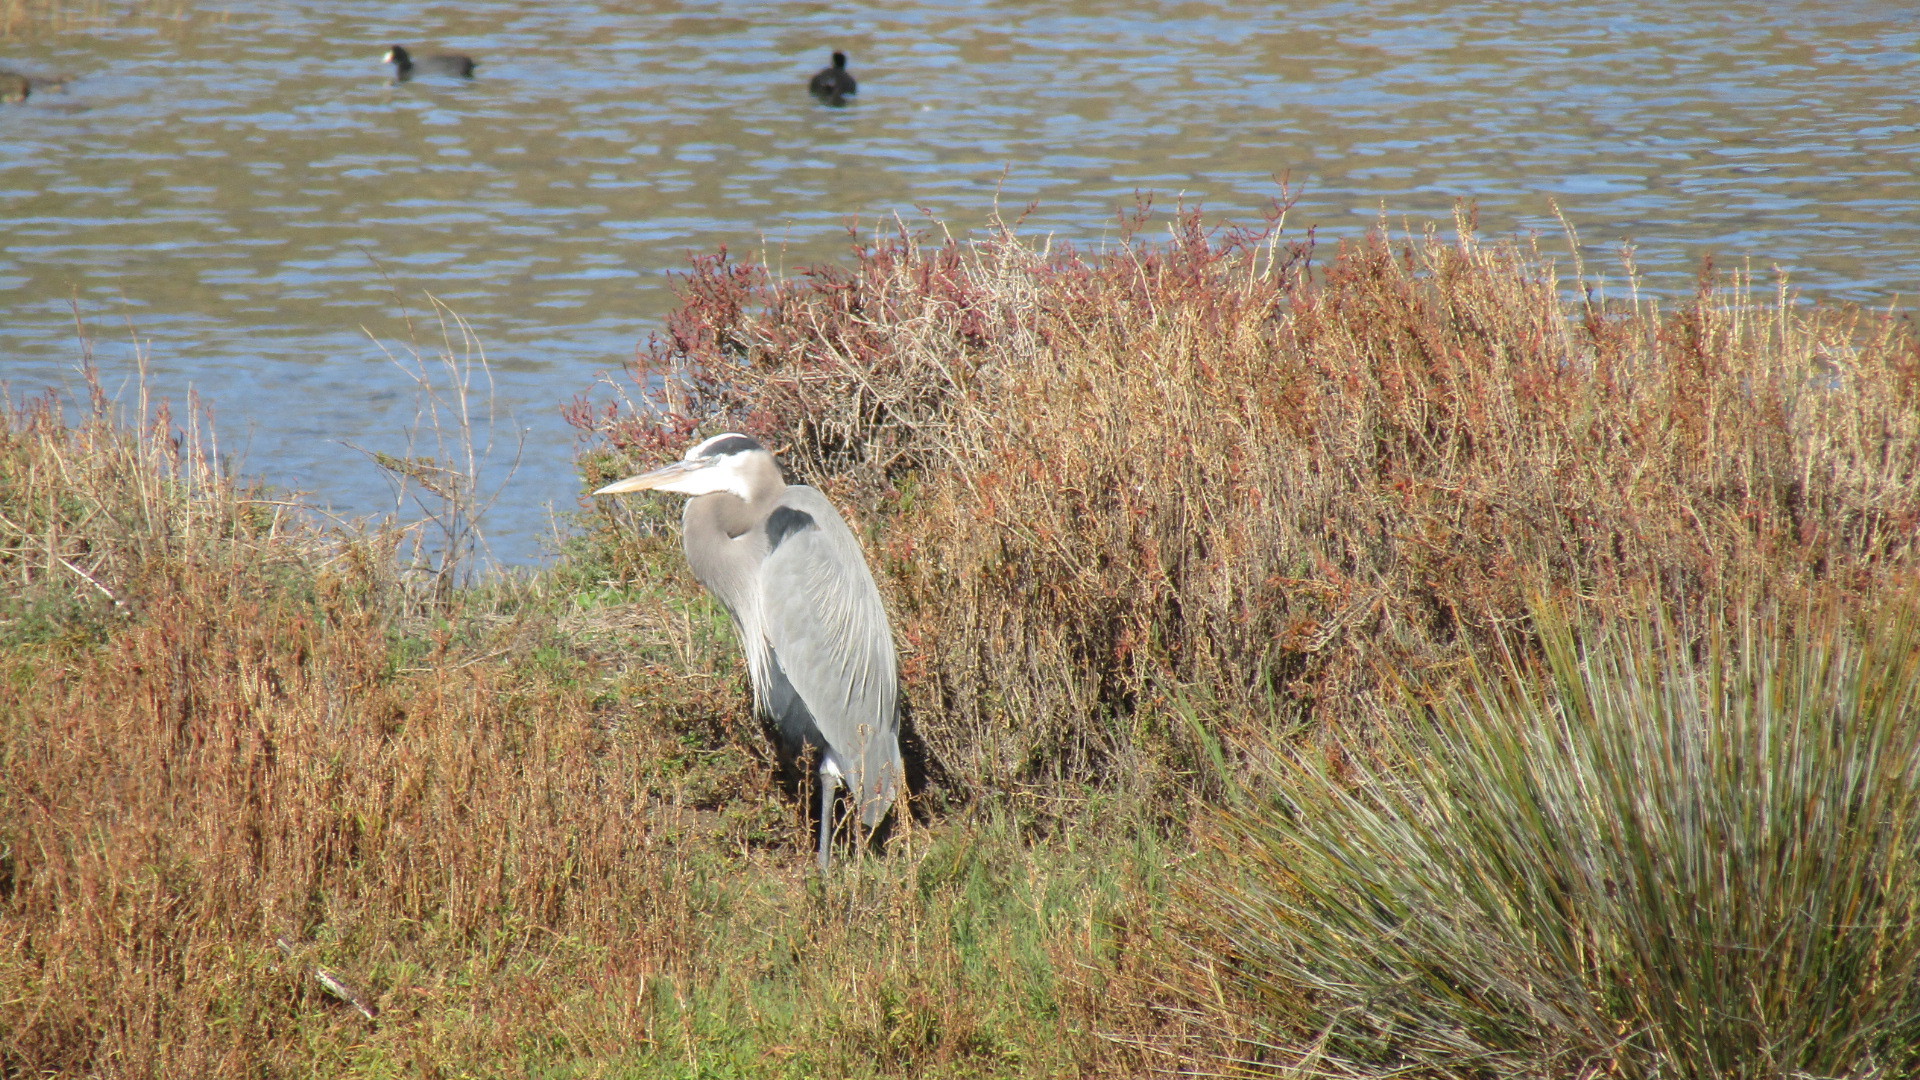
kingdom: Animalia
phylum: Chordata
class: Aves
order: Pelecaniformes
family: Ardeidae
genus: Ardea
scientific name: Ardea herodias
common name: Great blue heron
